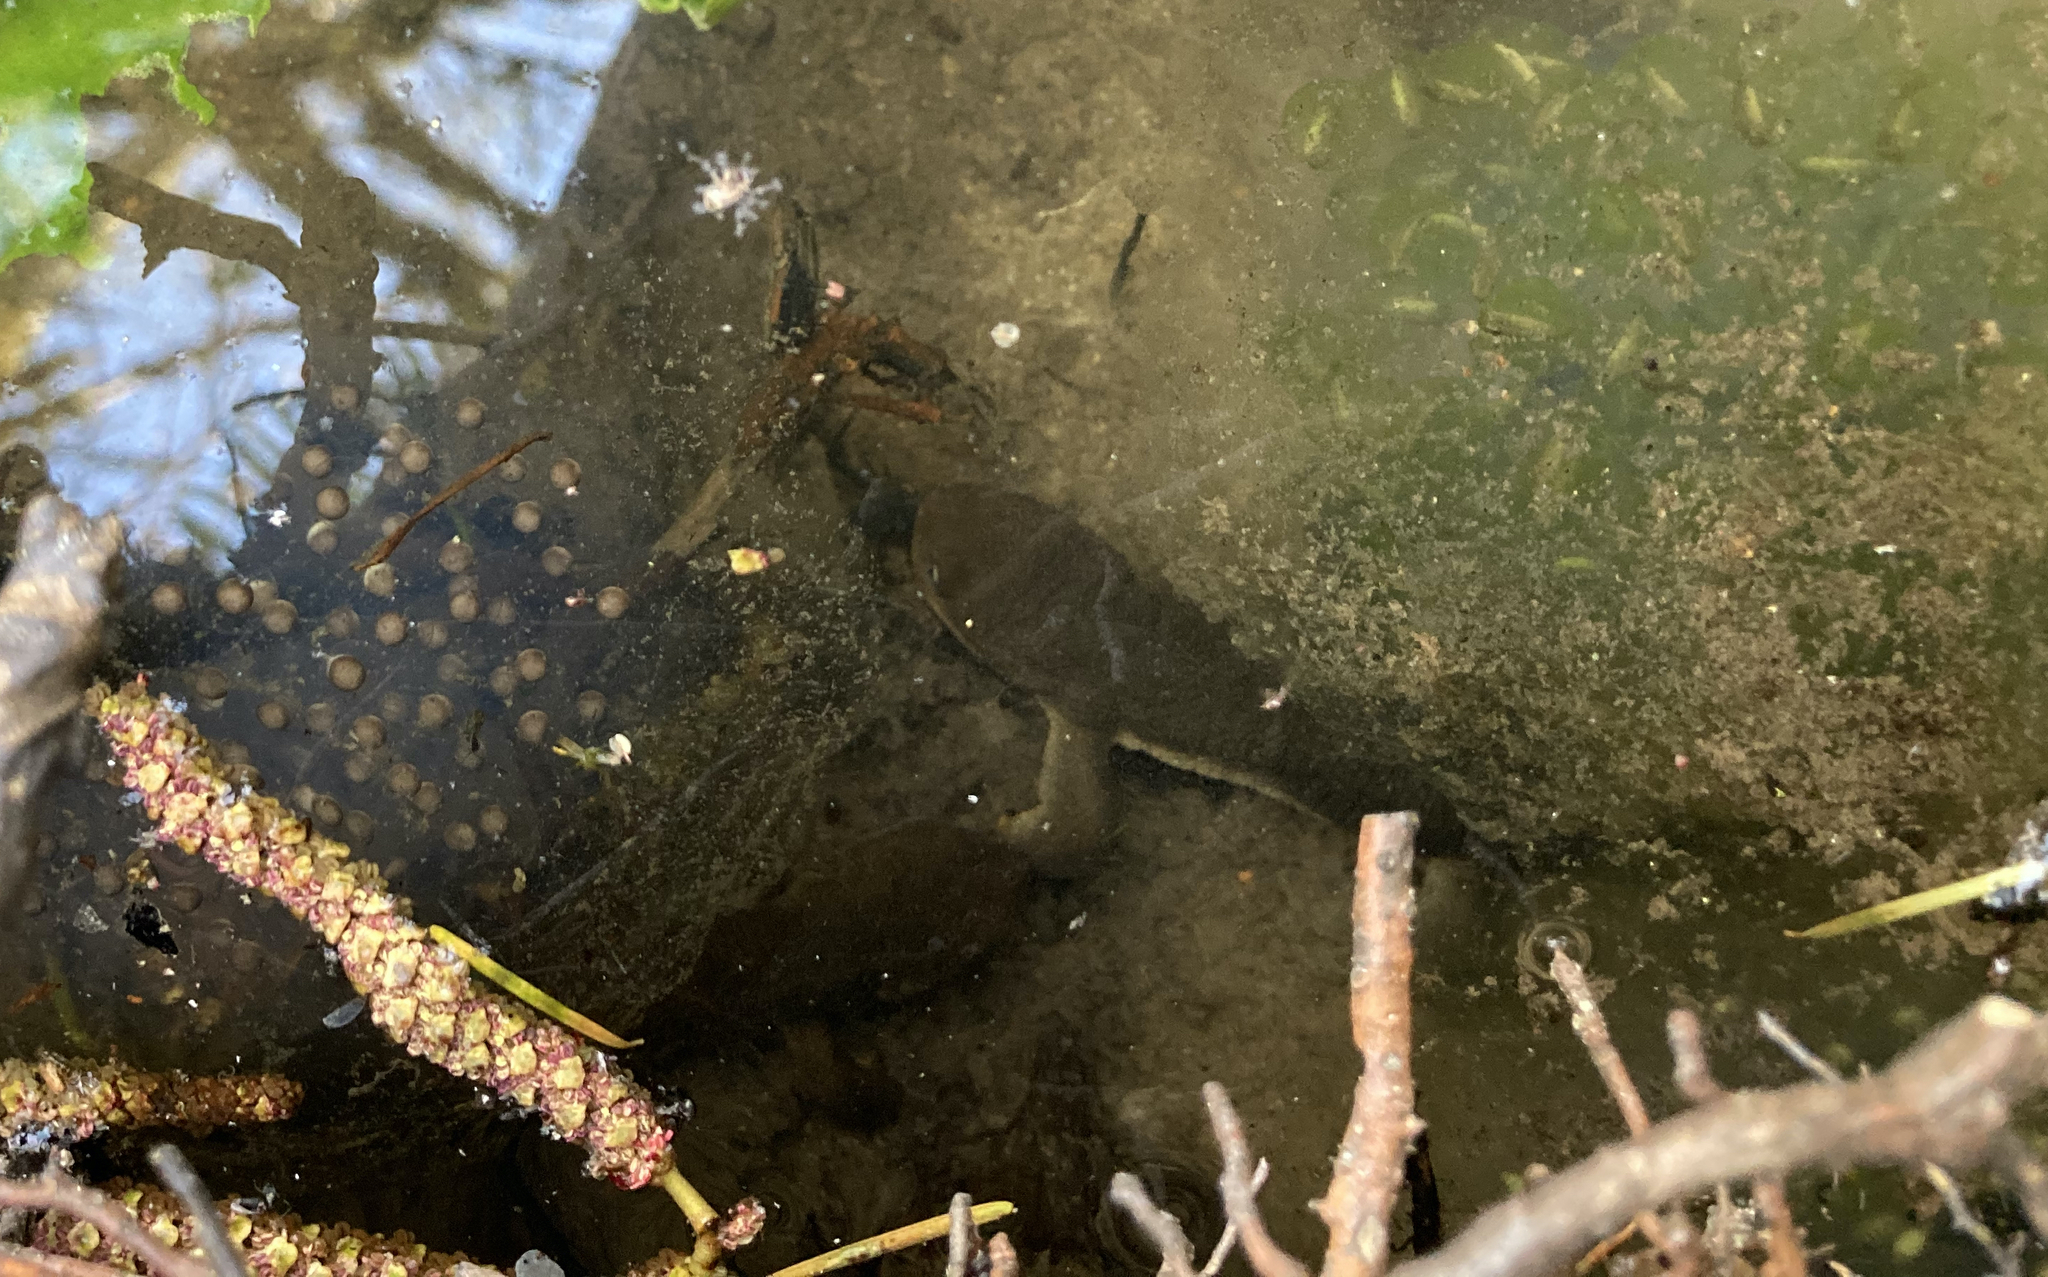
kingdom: Animalia
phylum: Chordata
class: Amphibia
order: Caudata
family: Salamandridae
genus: Taricha
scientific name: Taricha granulosa
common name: Roughskin newt
